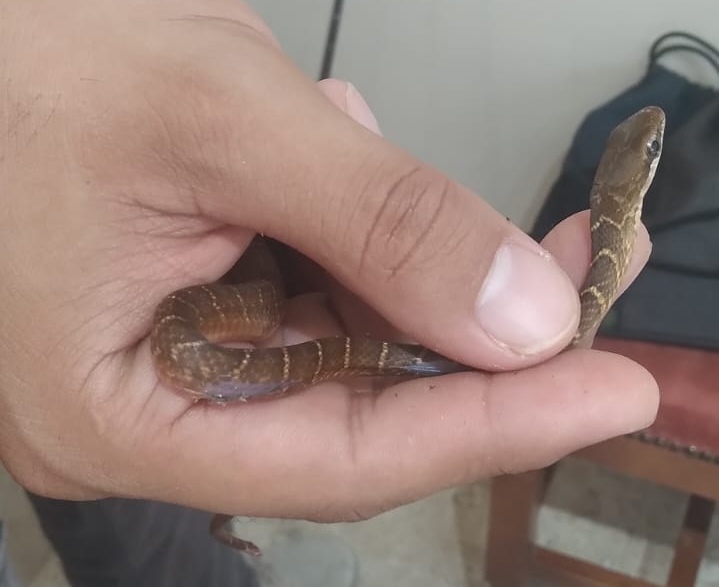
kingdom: Animalia
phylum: Chordata
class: Squamata
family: Colubridae
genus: Mastigodryas
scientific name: Mastigodryas melanolomus
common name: Salmon-bellied racer
